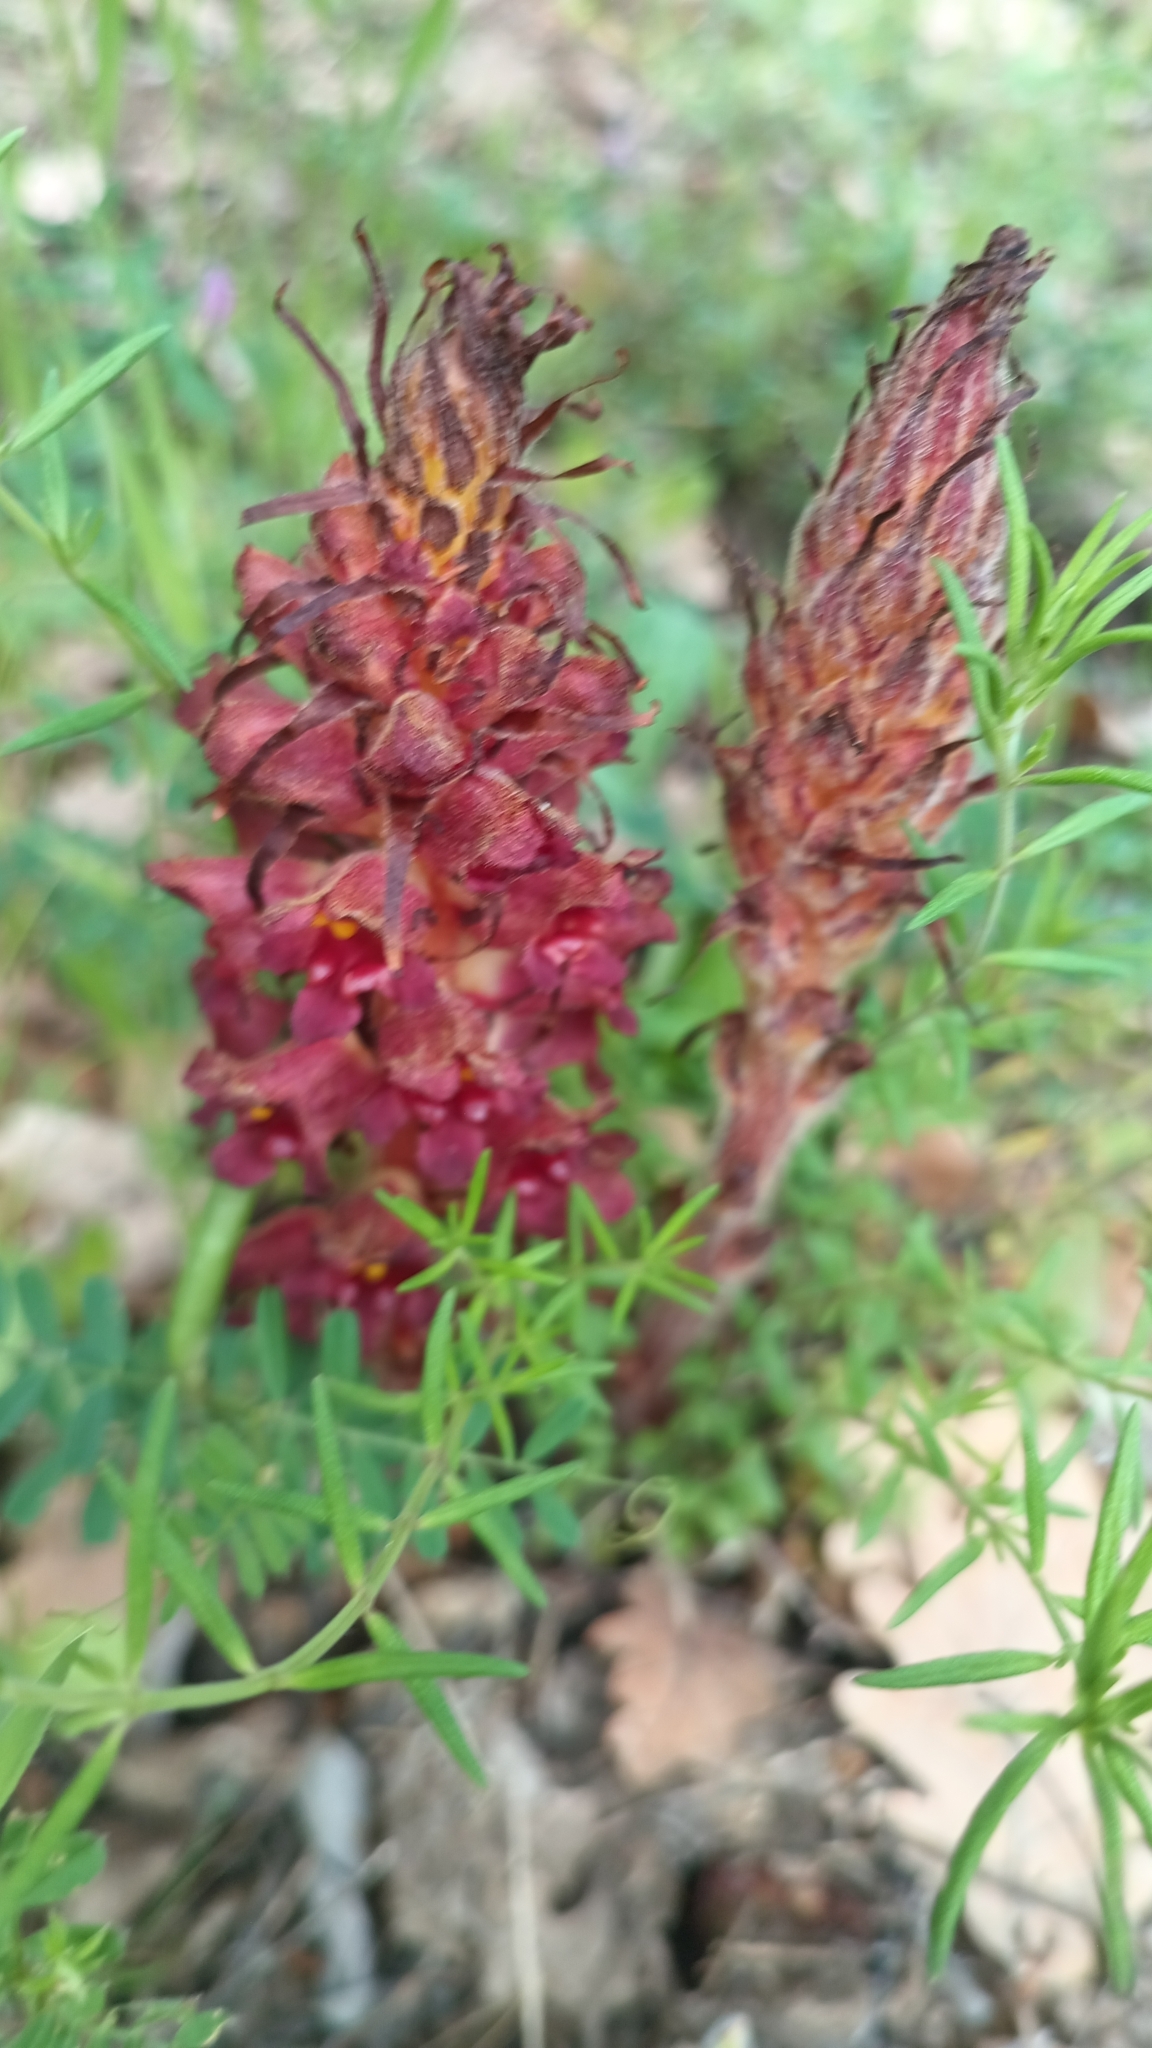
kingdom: Plantae
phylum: Tracheophyta
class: Magnoliopsida
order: Lamiales
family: Orobanchaceae
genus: Orobanche
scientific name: Orobanche variegata
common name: Variegated broomrape
